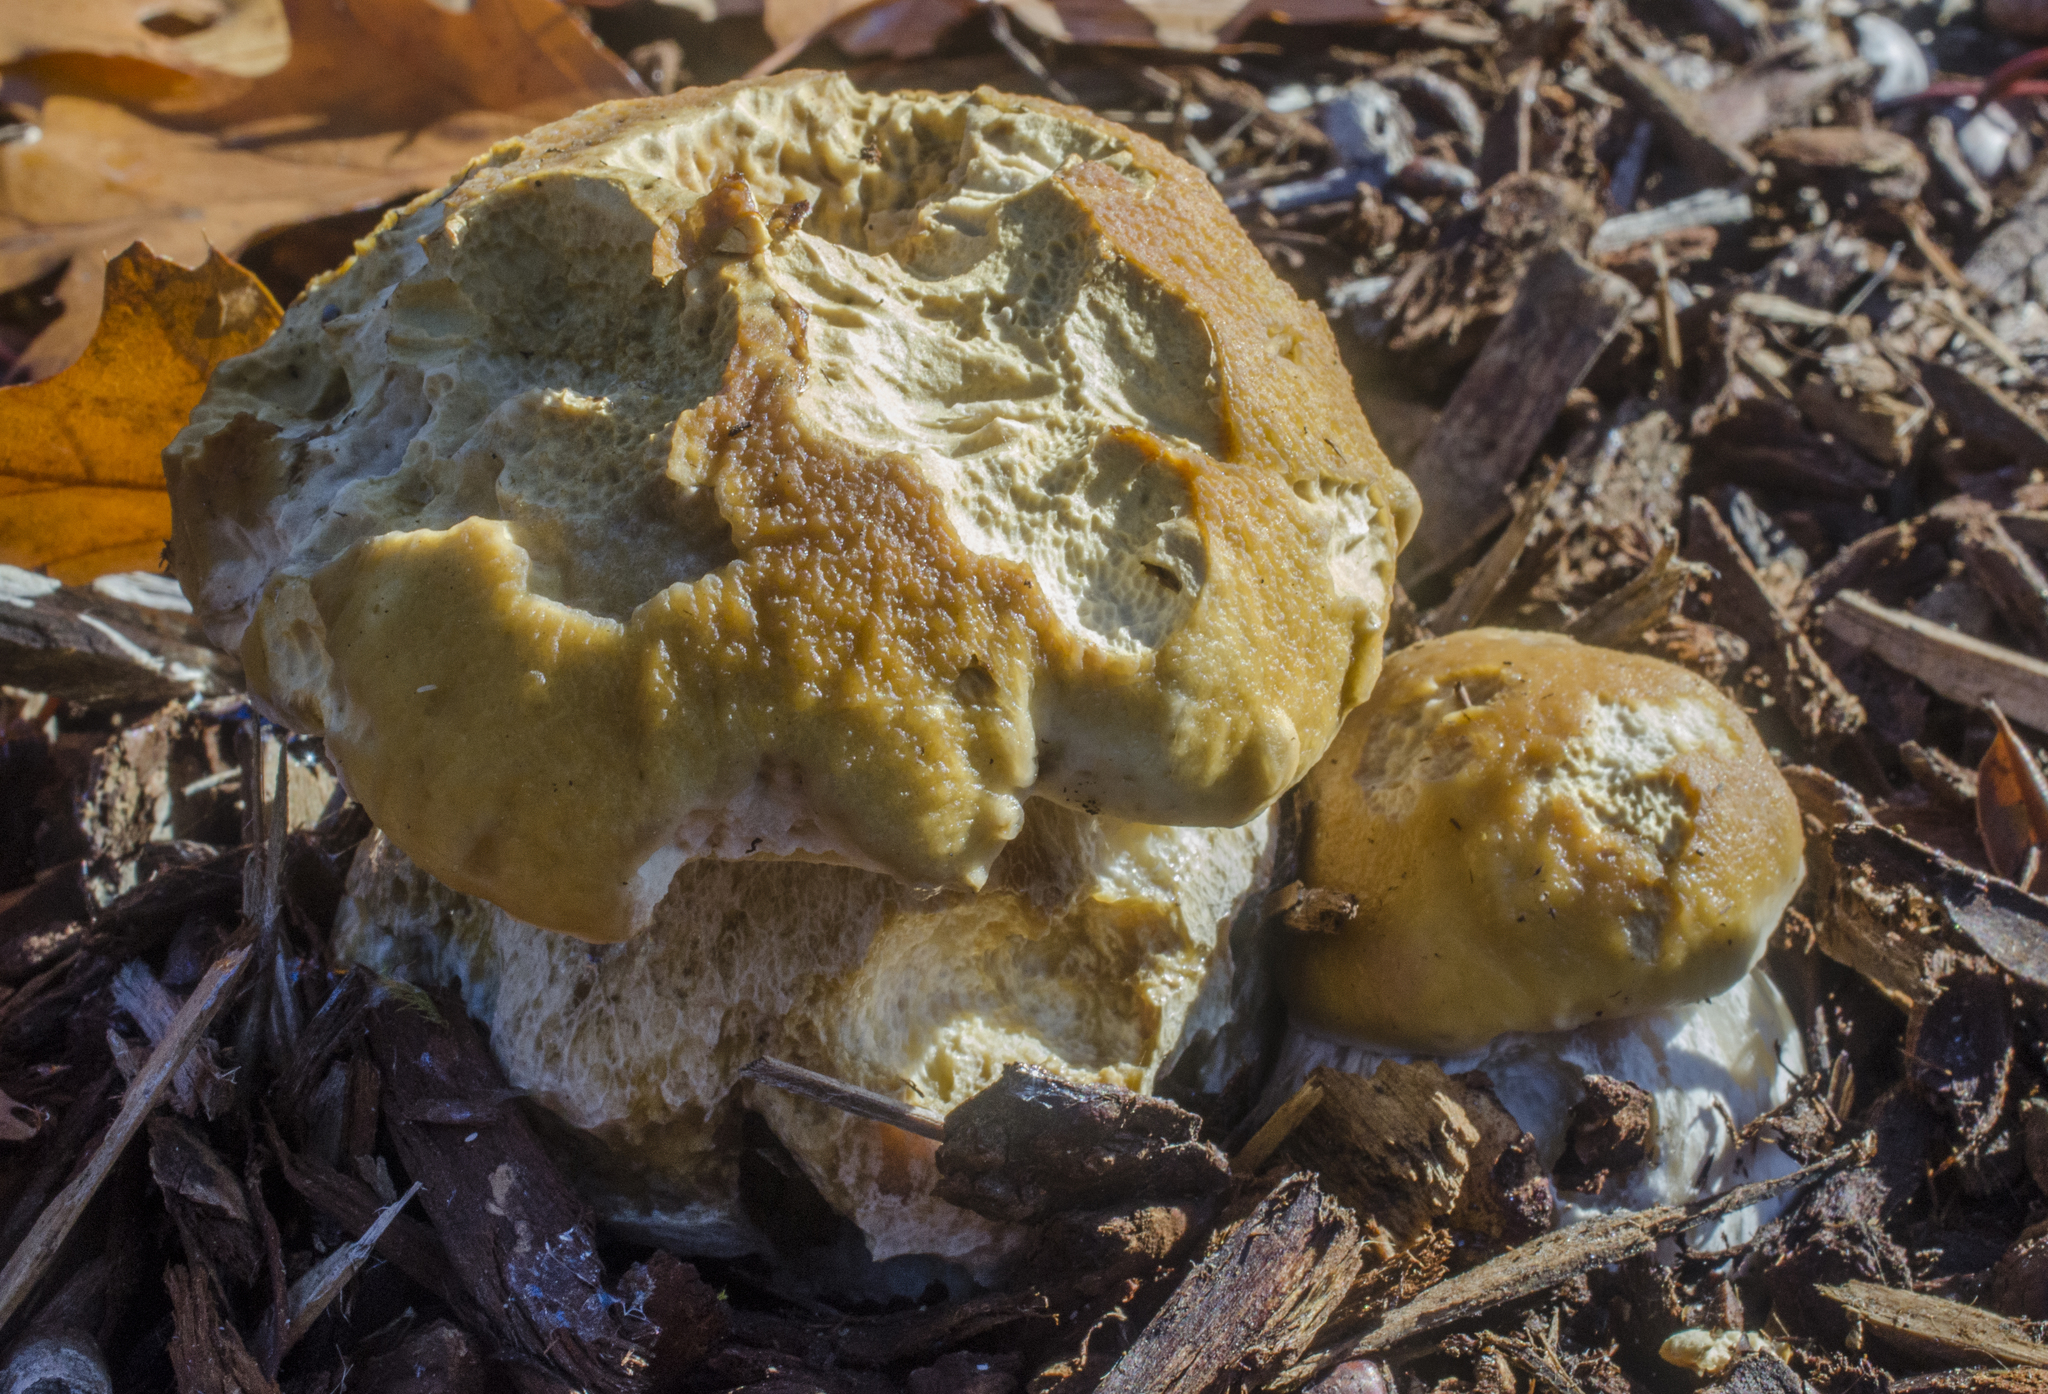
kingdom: Fungi
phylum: Basidiomycota
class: Agaricomycetes
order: Boletales
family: Boletaceae
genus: Boletus
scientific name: Boletus
